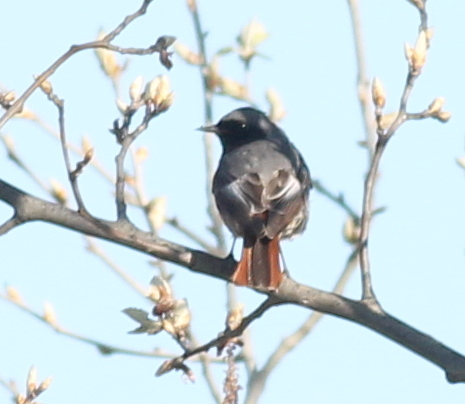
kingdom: Animalia
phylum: Chordata
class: Aves
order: Passeriformes
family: Muscicapidae
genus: Phoenicurus
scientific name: Phoenicurus ochruros
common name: Black redstart
